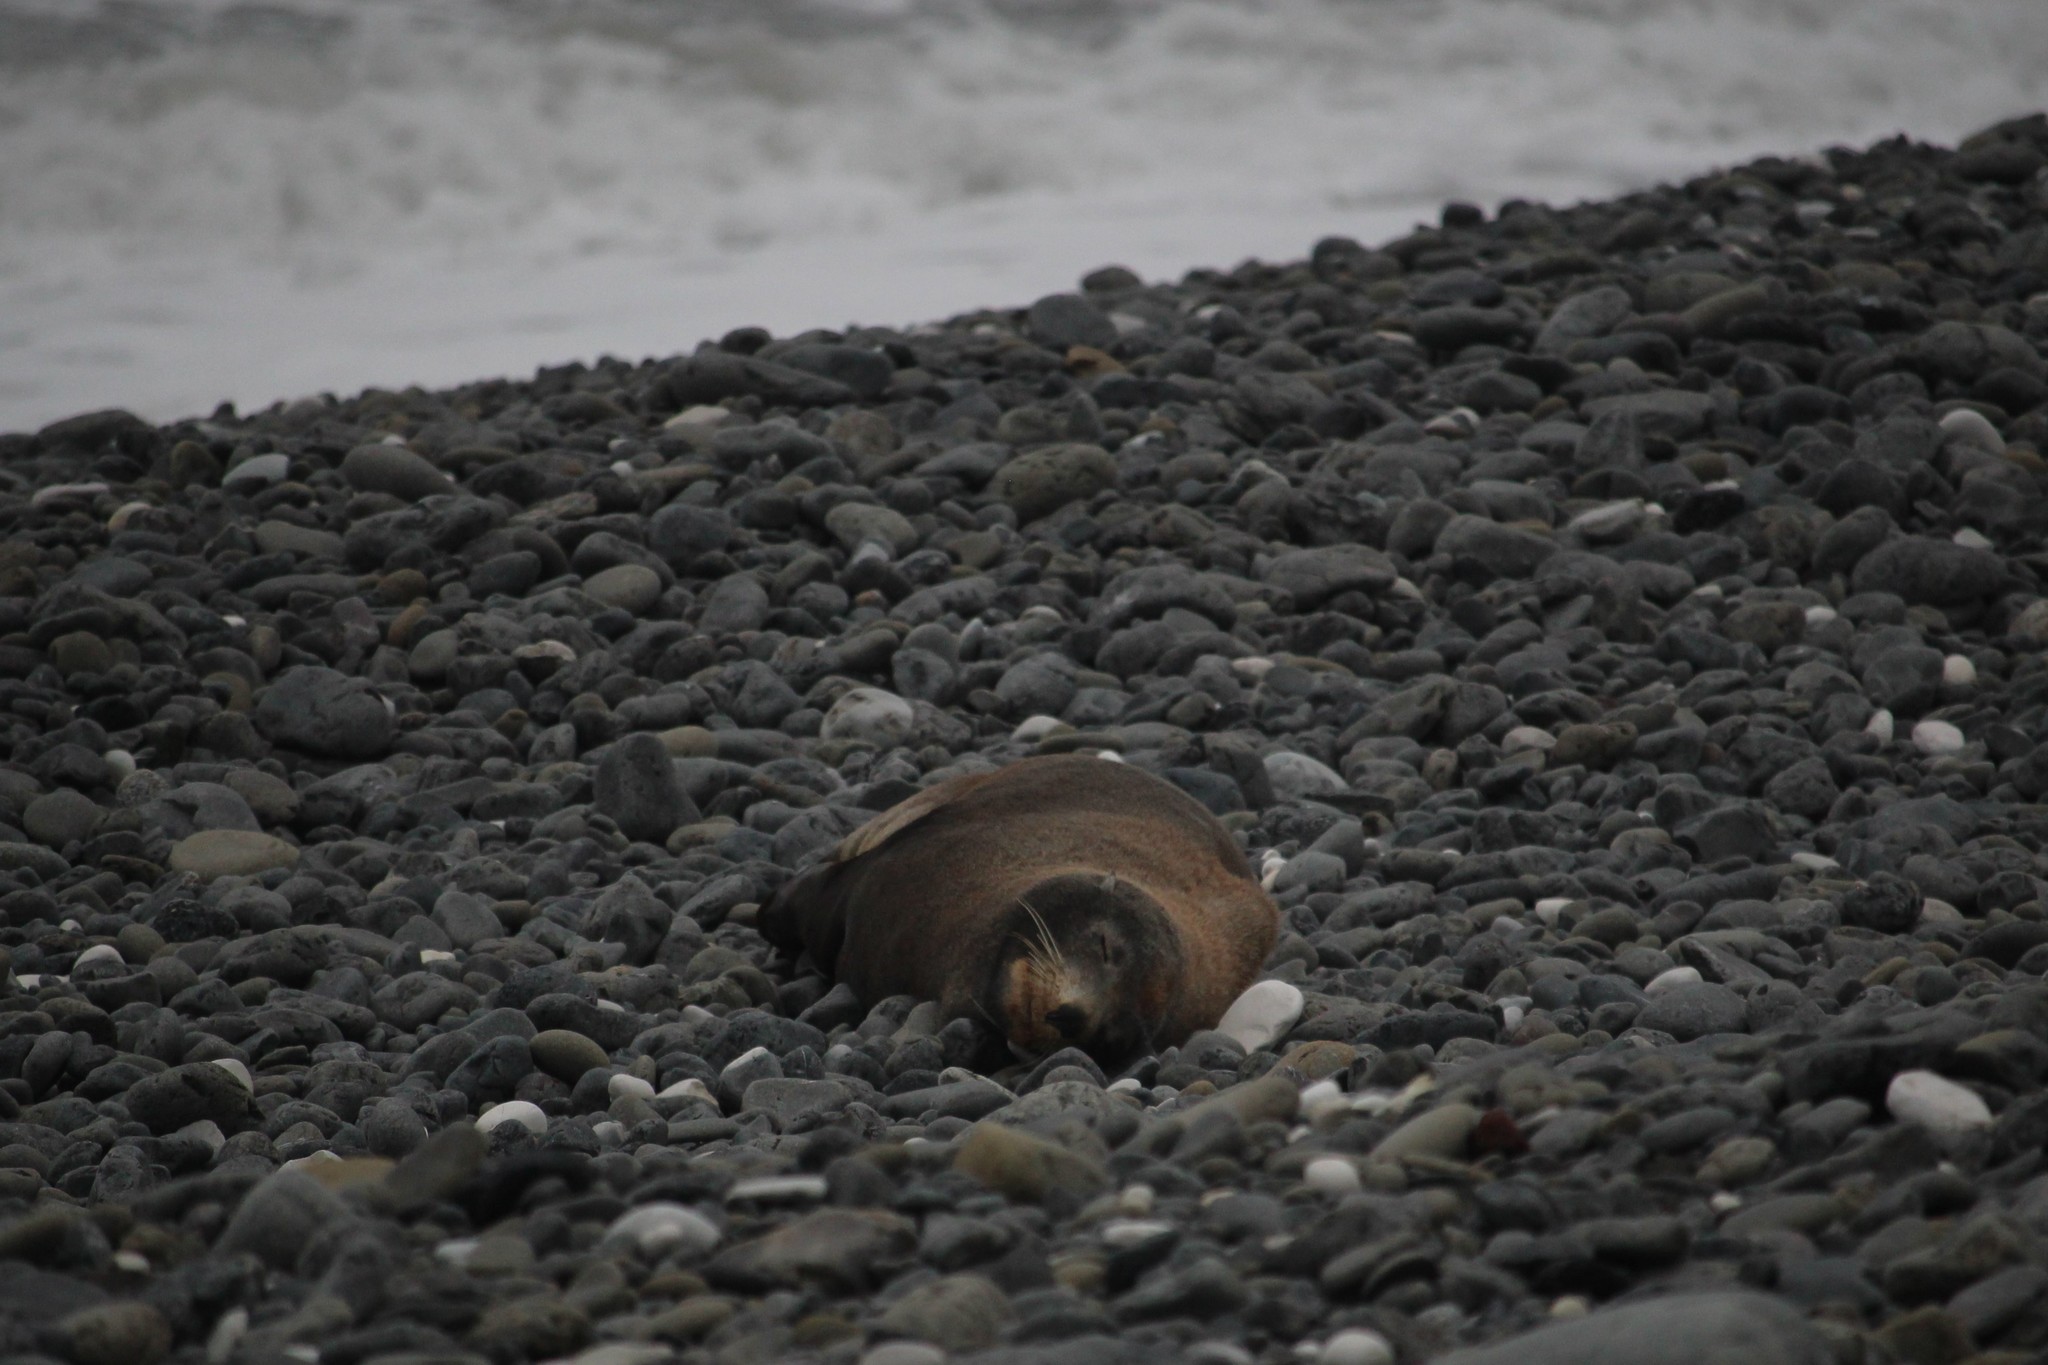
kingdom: Animalia
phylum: Chordata
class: Mammalia
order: Carnivora
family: Otariidae
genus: Arctocephalus
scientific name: Arctocephalus forsteri
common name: New zealand fur seal
